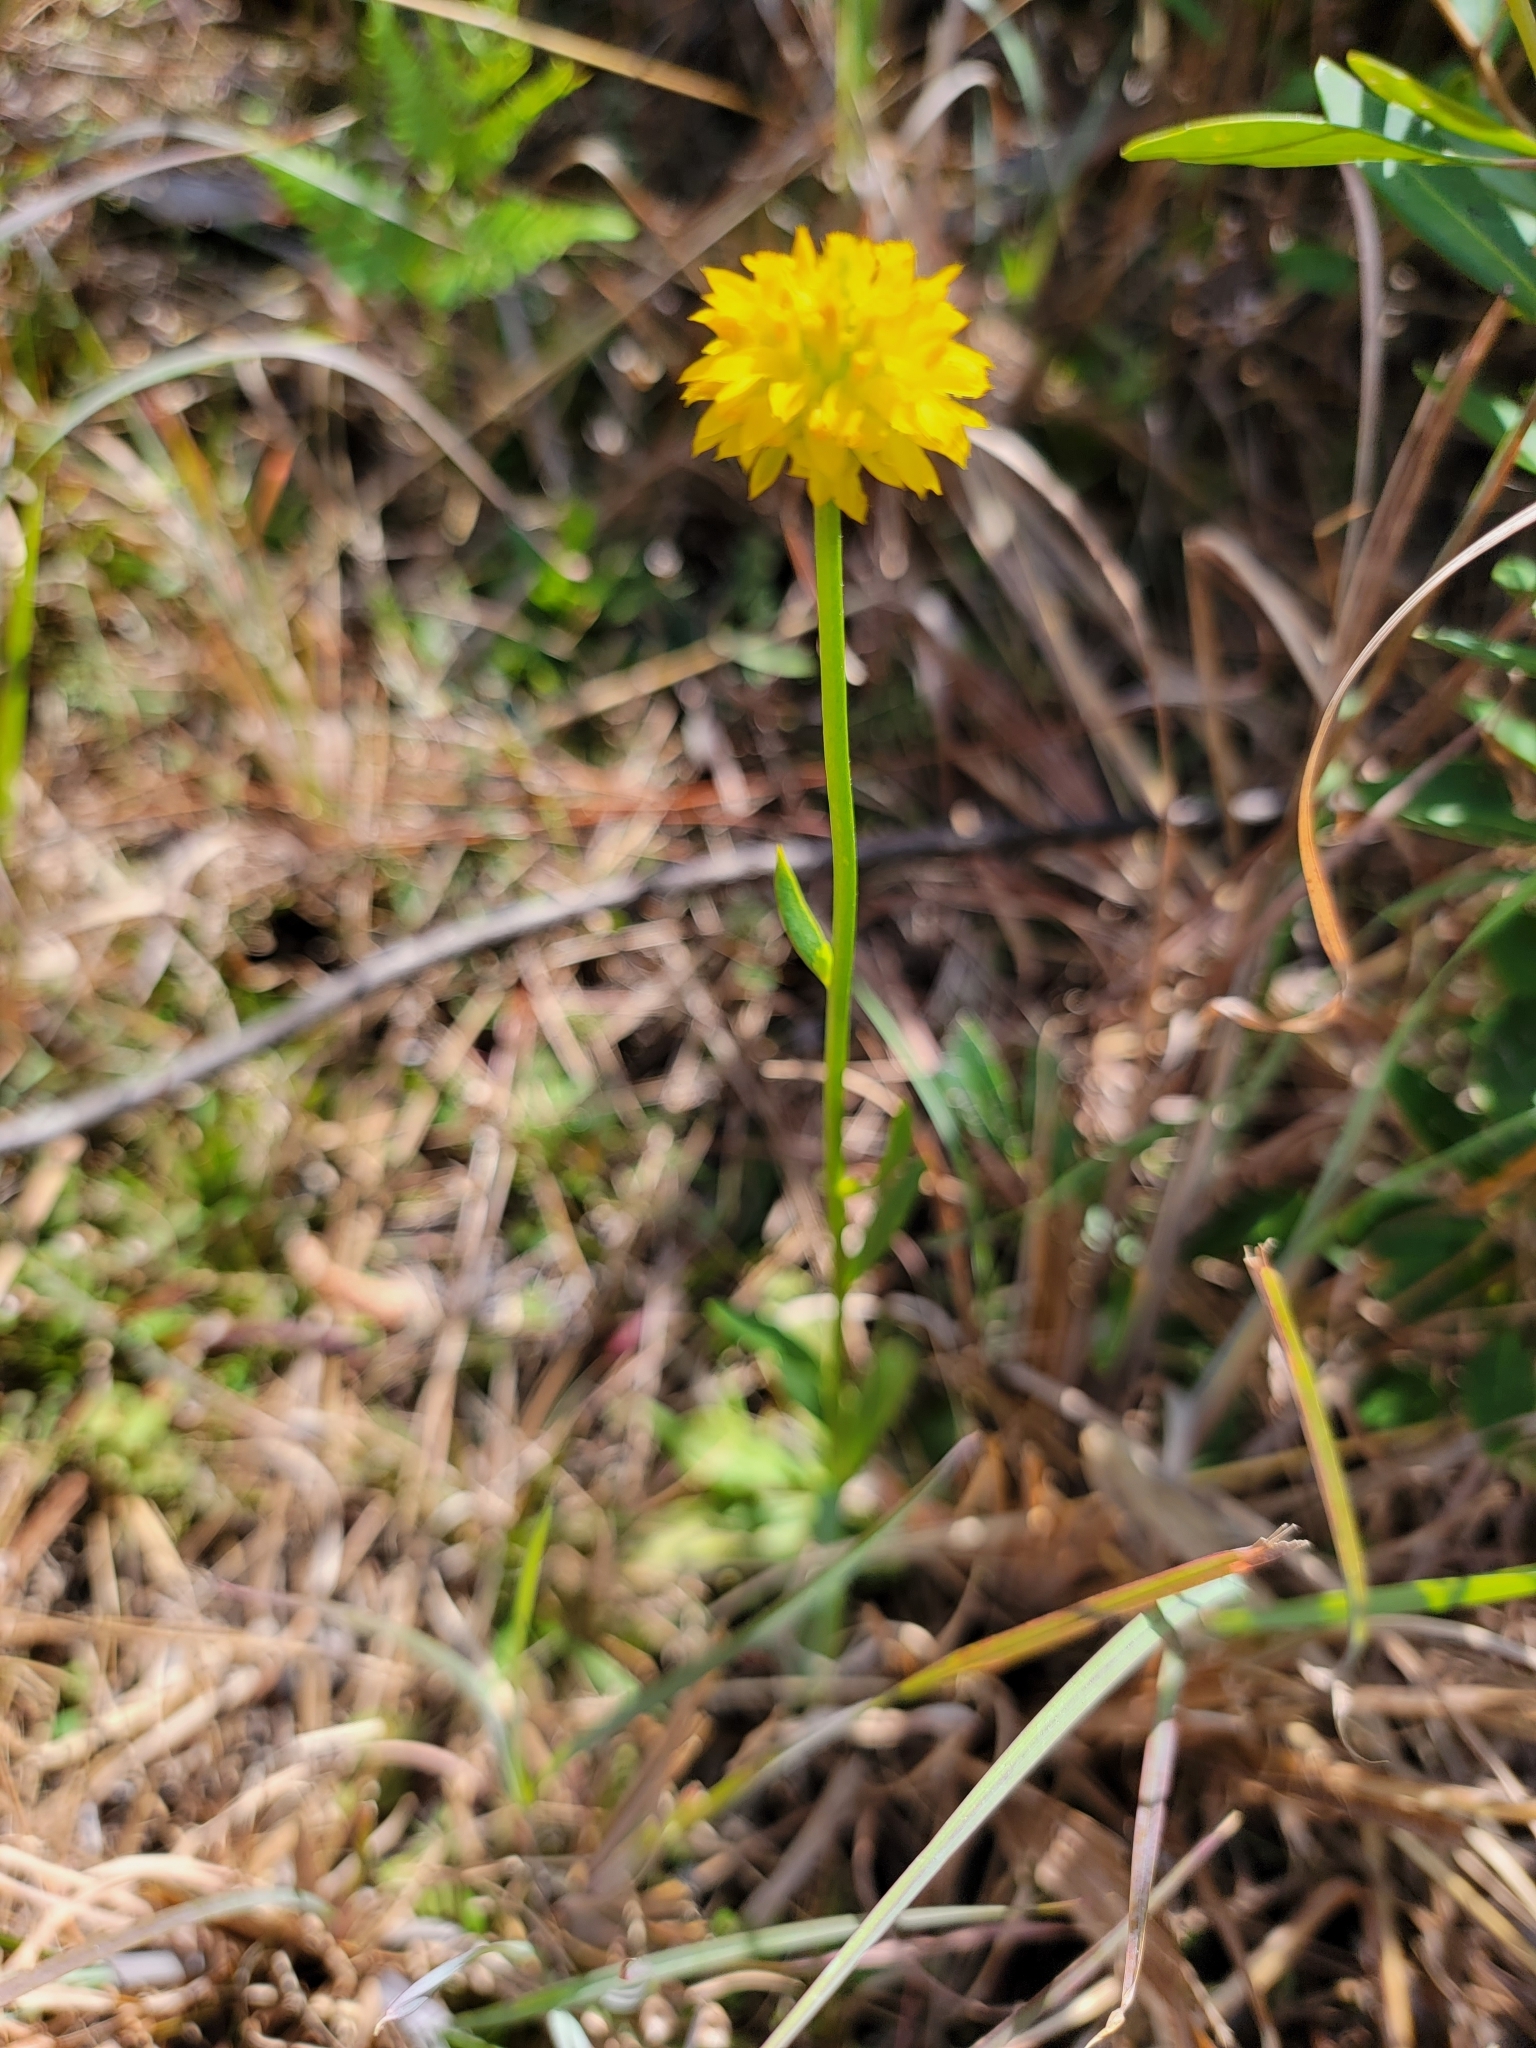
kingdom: Plantae
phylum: Tracheophyta
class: Magnoliopsida
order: Fabales
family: Polygalaceae
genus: Polygala
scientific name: Polygala rugelii
